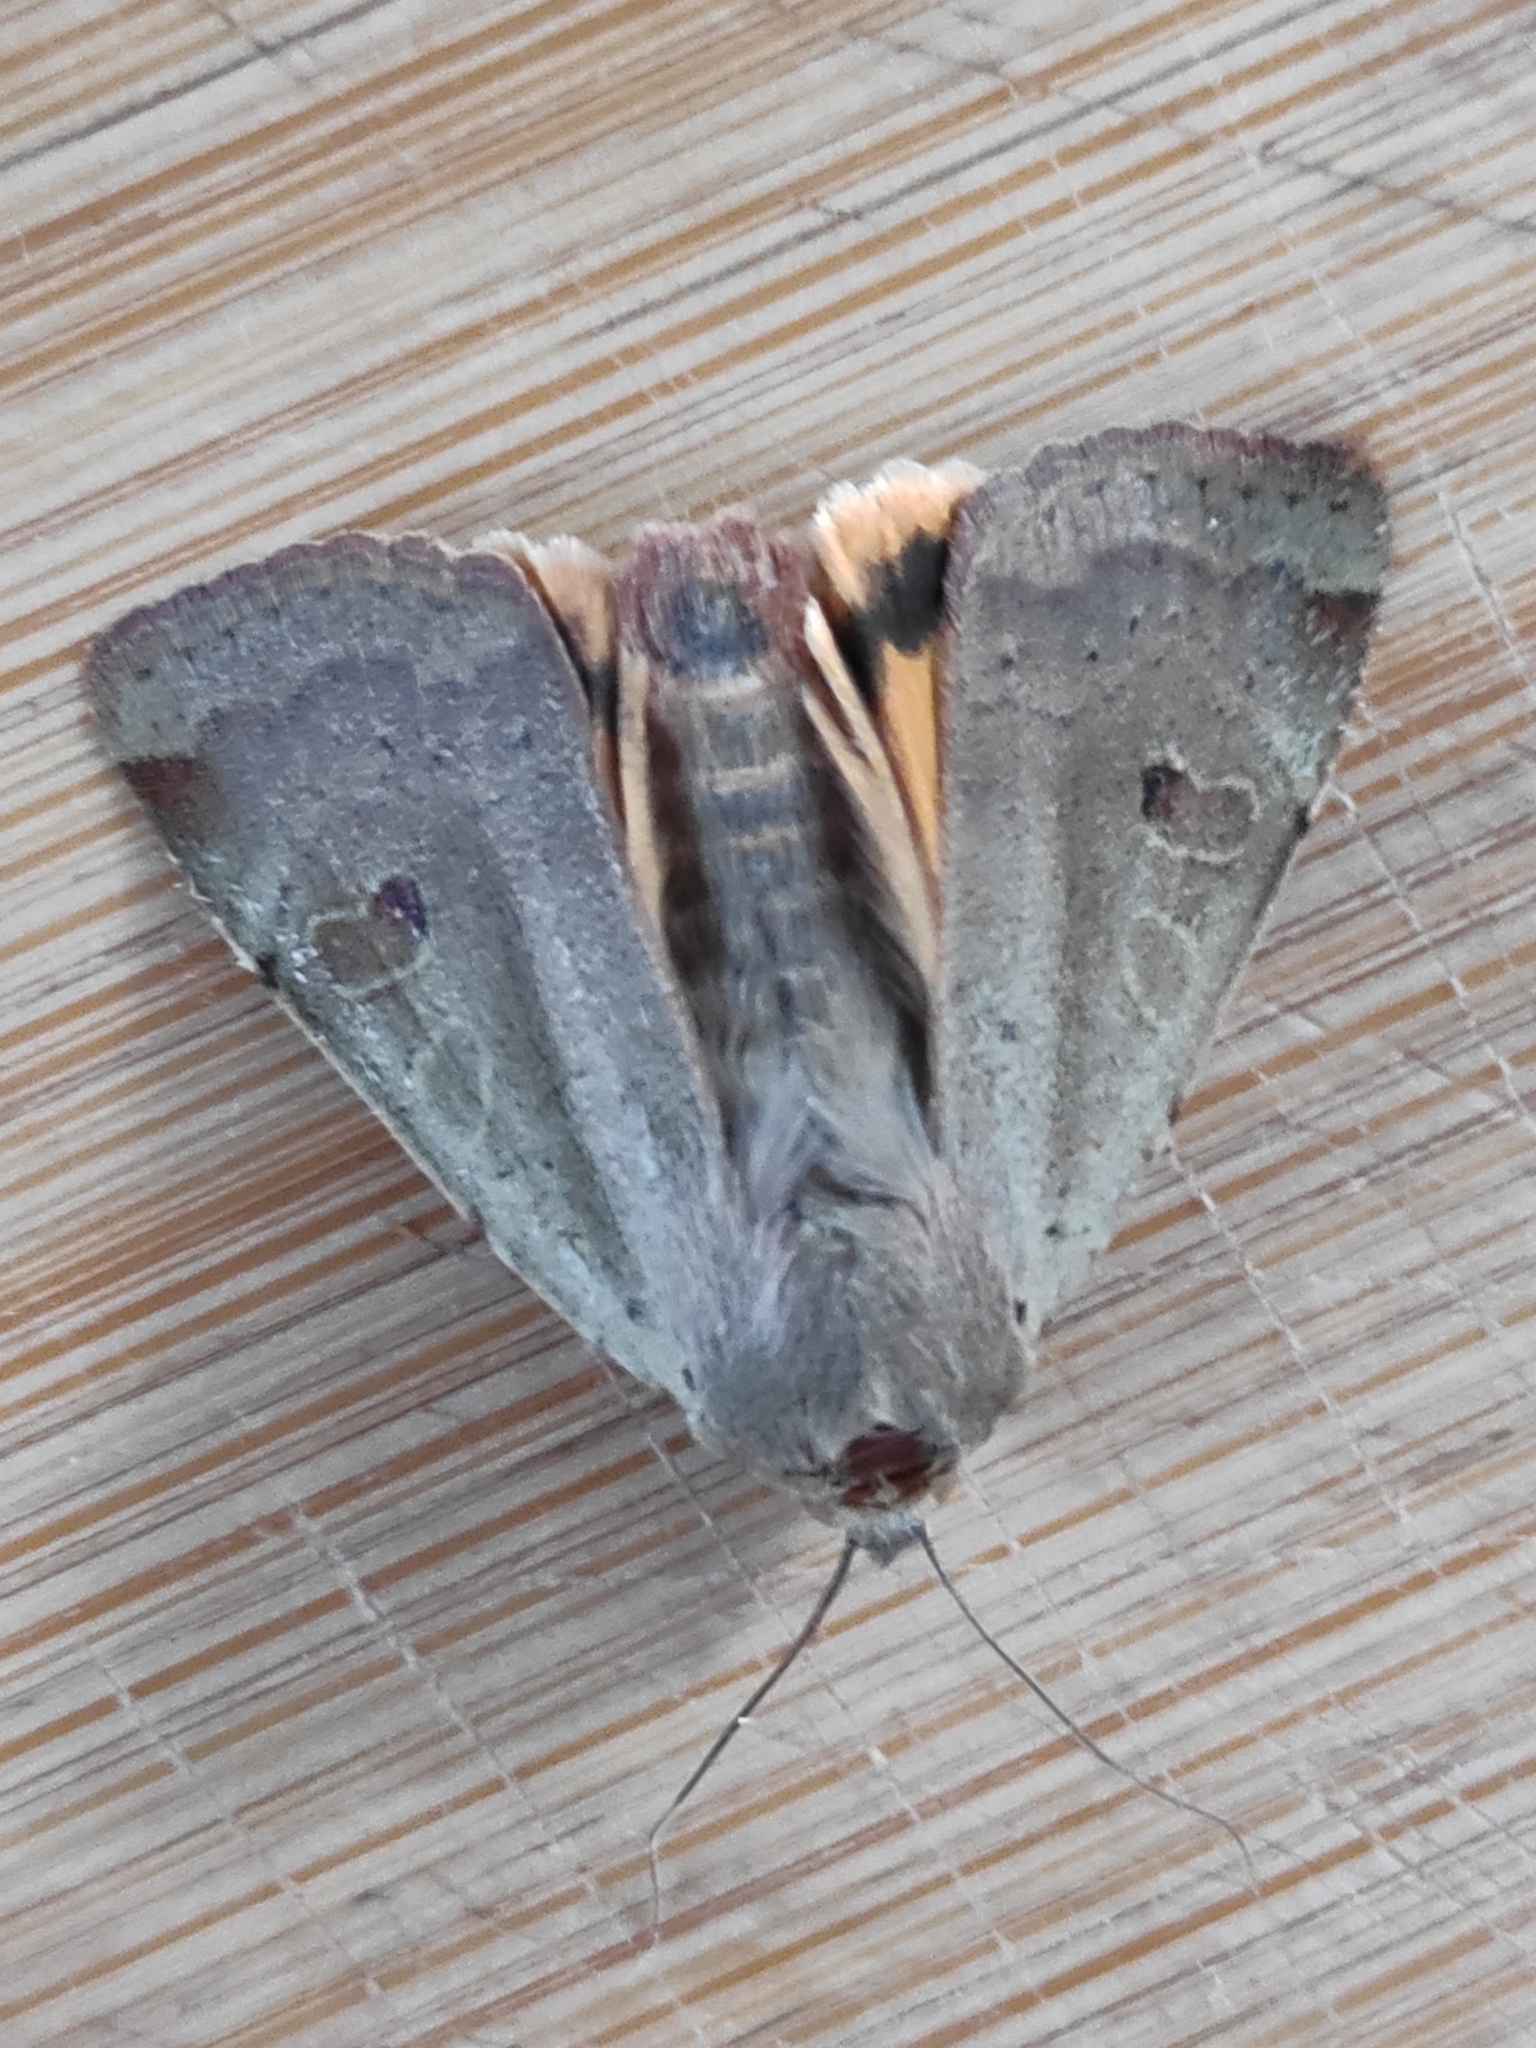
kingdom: Animalia
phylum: Arthropoda
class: Insecta
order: Lepidoptera
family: Noctuidae
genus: Noctua
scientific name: Noctua comes
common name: Lesser yellow underwing
